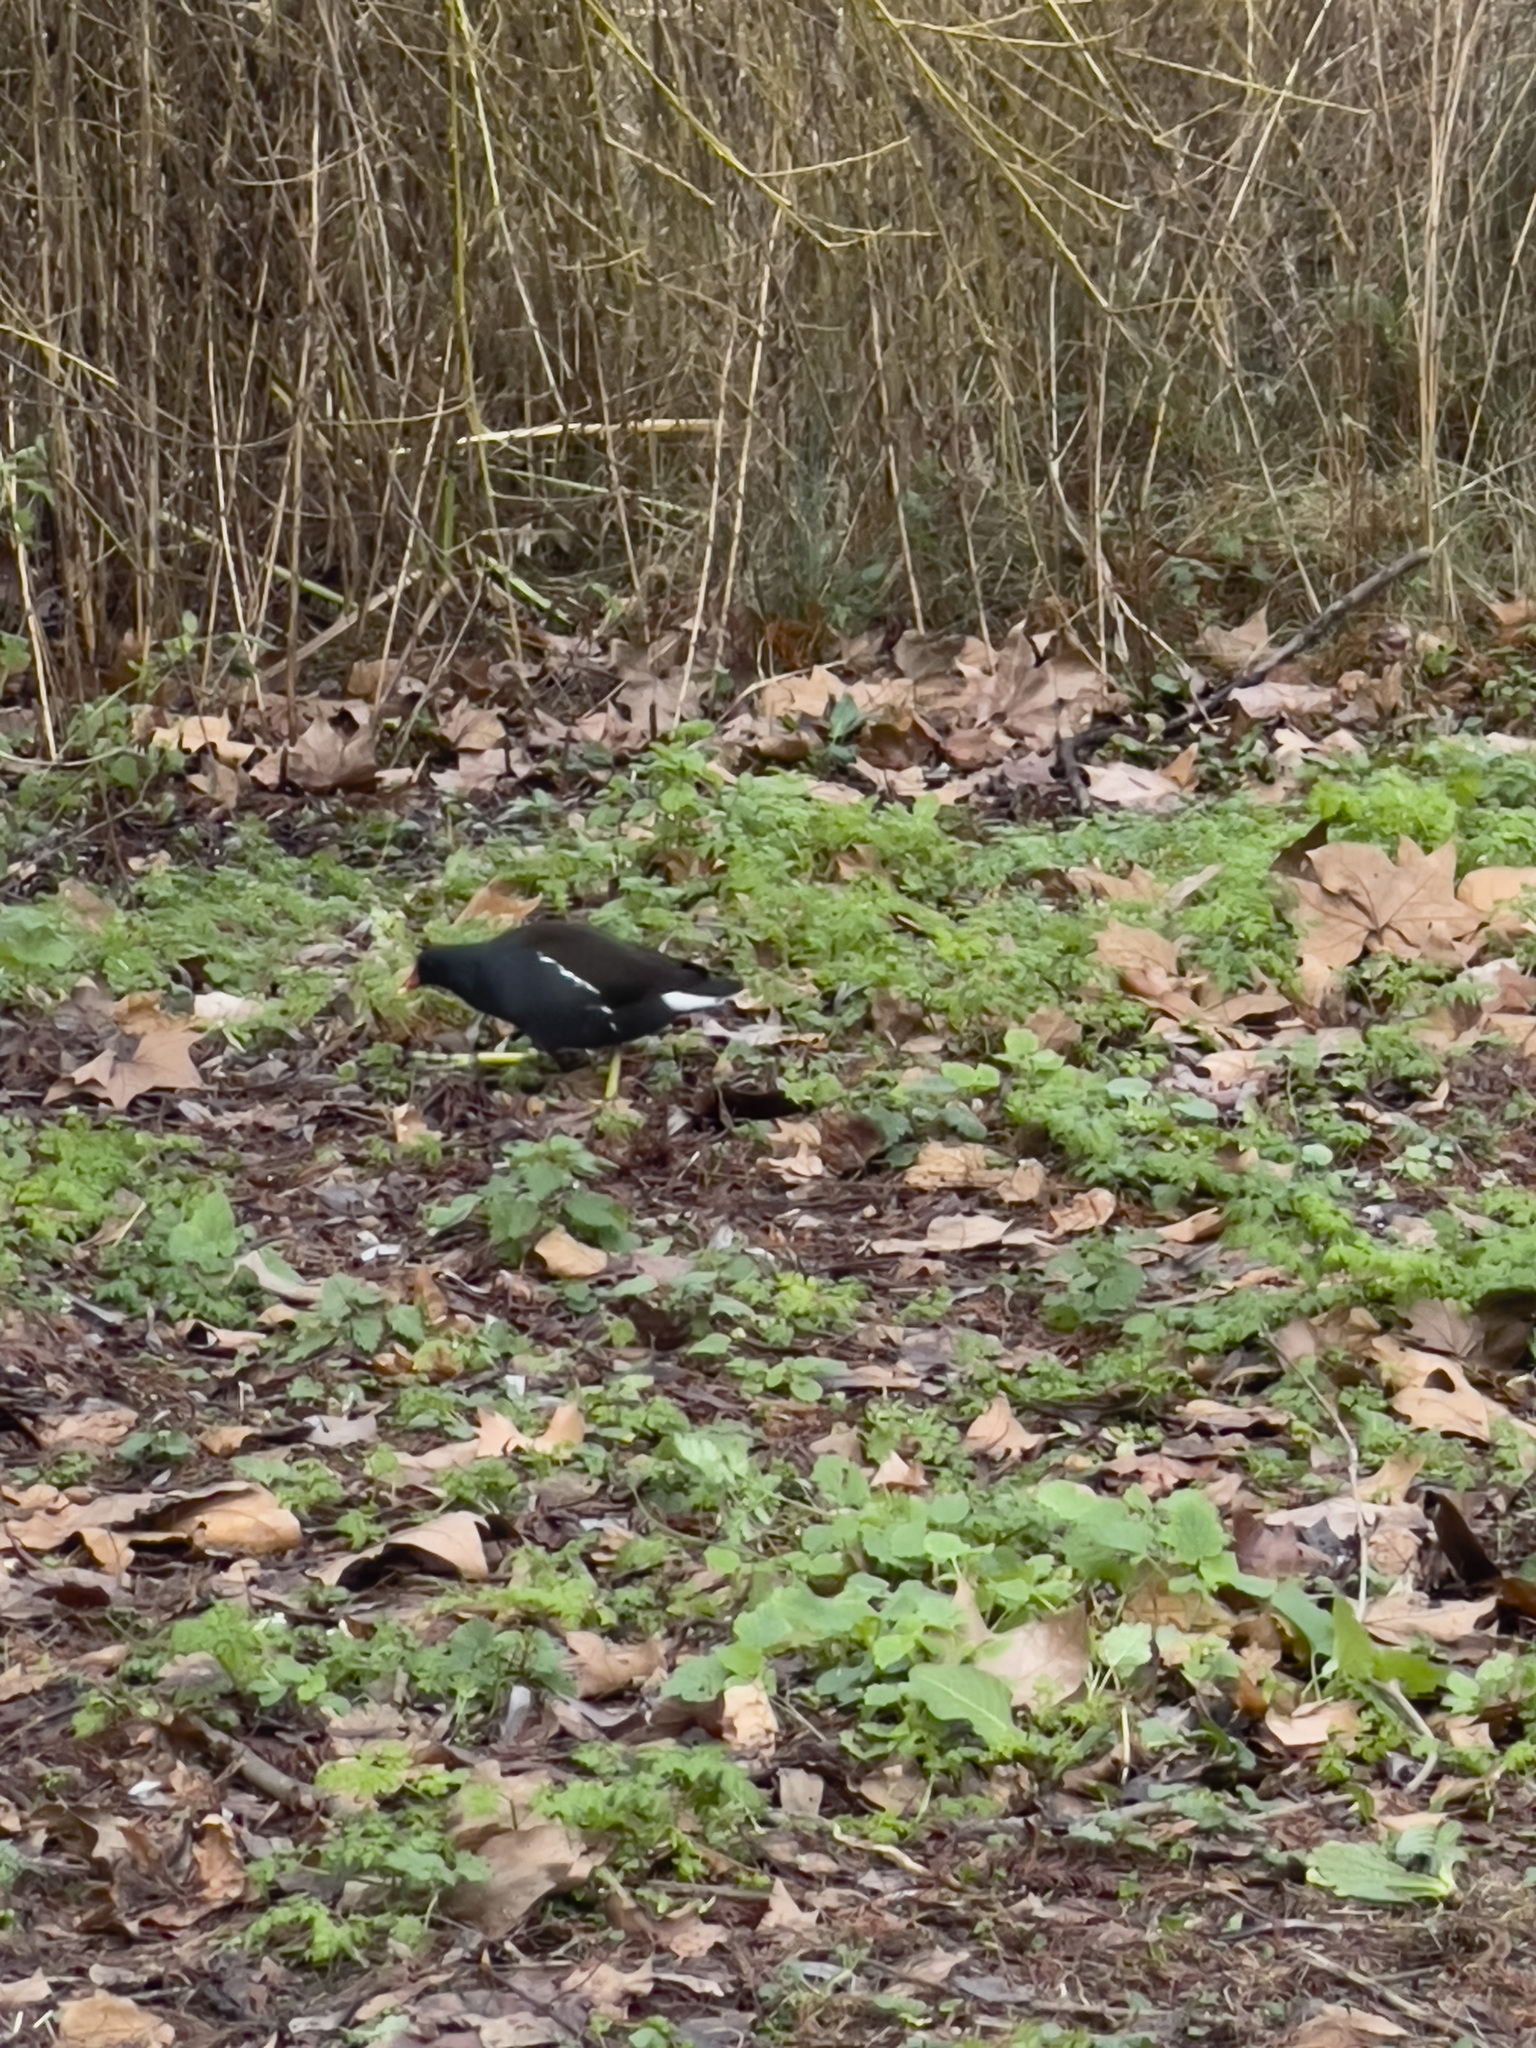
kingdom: Animalia
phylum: Chordata
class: Aves
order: Gruiformes
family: Rallidae
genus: Gallinula
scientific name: Gallinula chloropus
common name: Common moorhen
